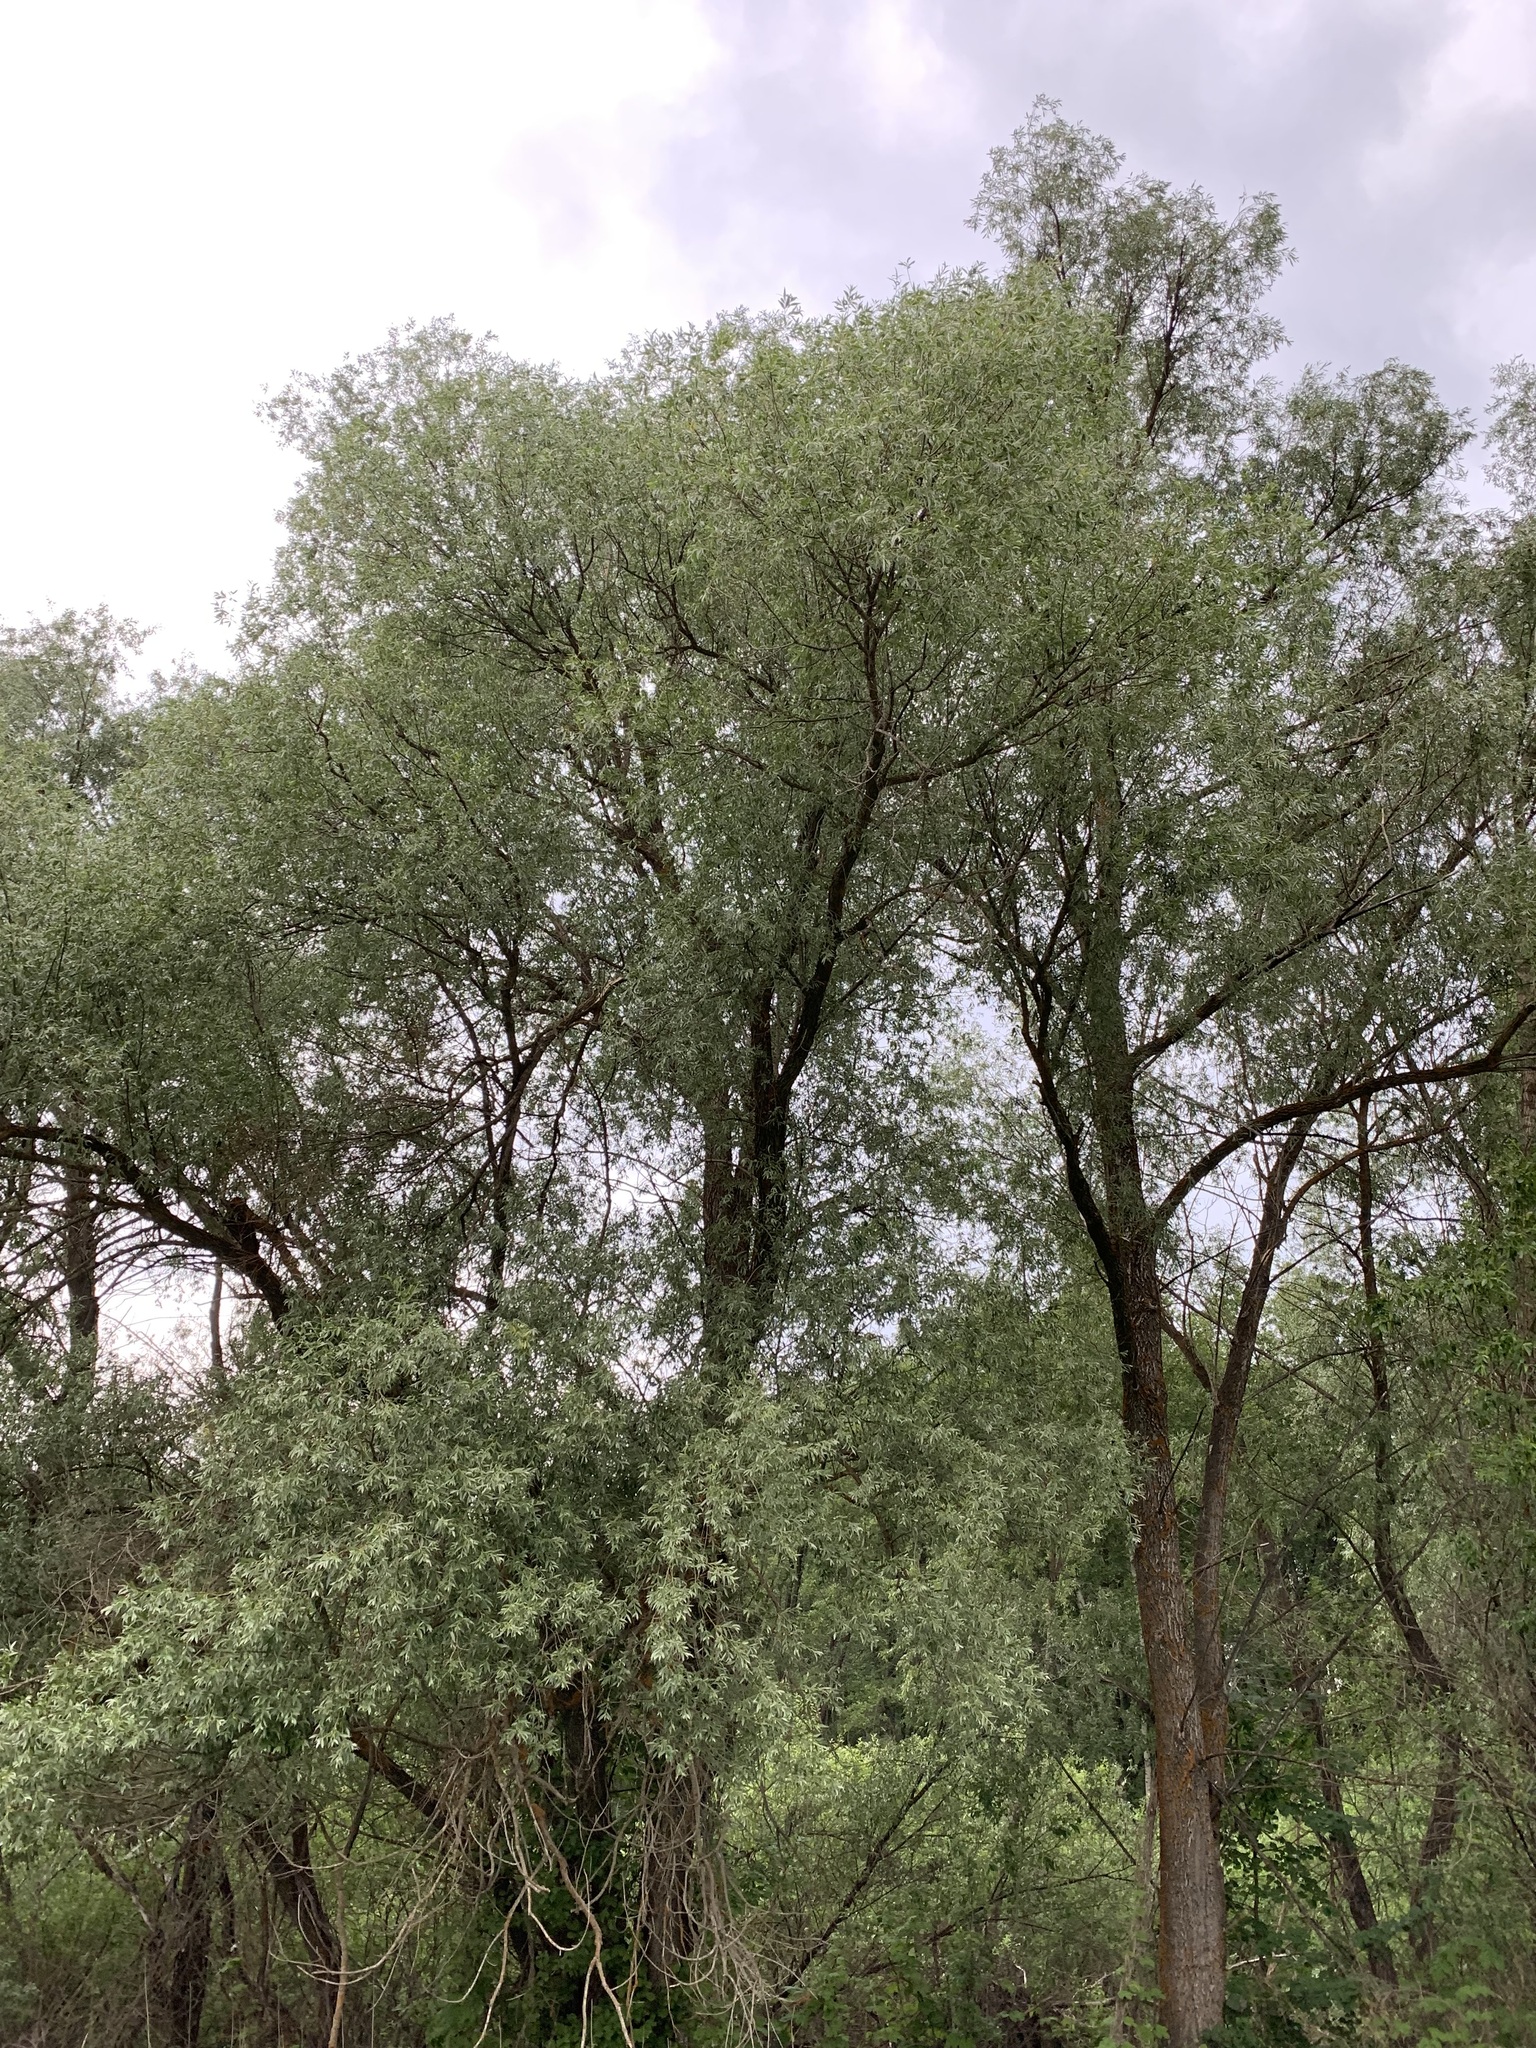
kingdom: Plantae
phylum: Tracheophyta
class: Magnoliopsida
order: Malpighiales
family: Salicaceae
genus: Salix
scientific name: Salix alba
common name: White willow
